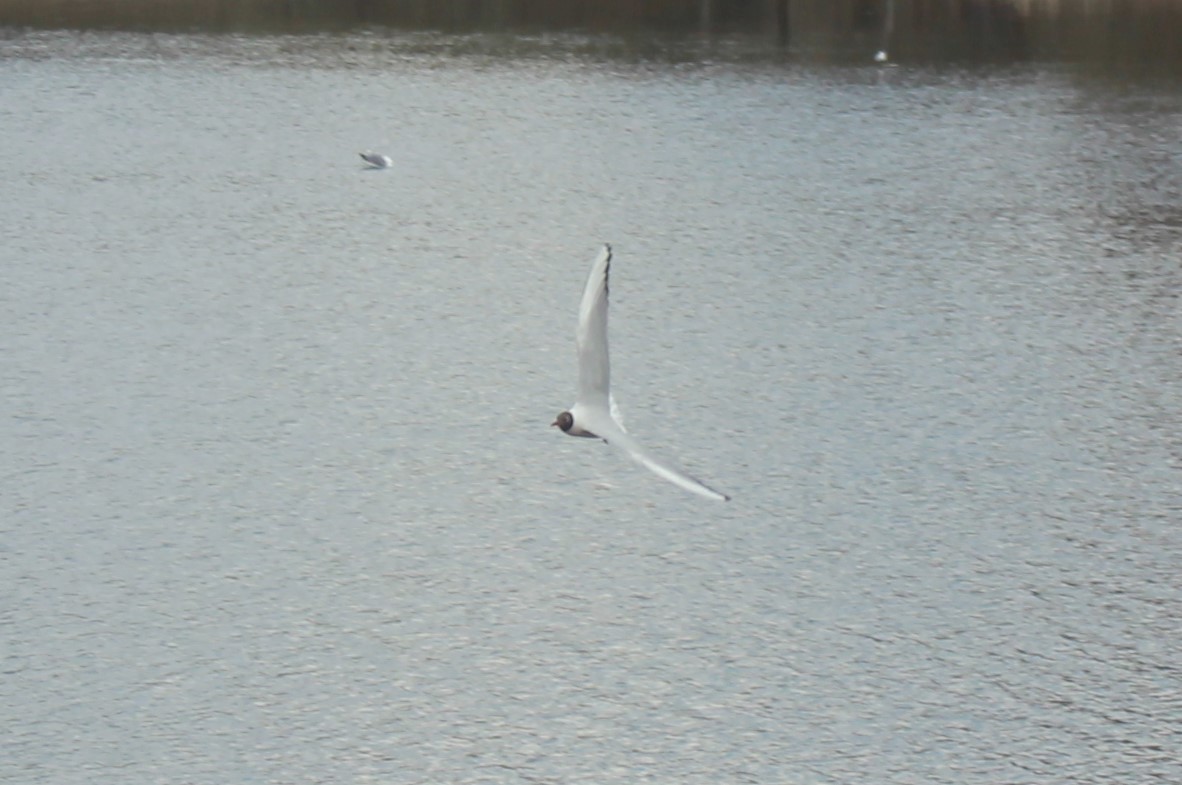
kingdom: Animalia
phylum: Chordata
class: Aves
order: Charadriiformes
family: Laridae
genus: Chroicocephalus
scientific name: Chroicocephalus ridibundus
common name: Black-headed gull
